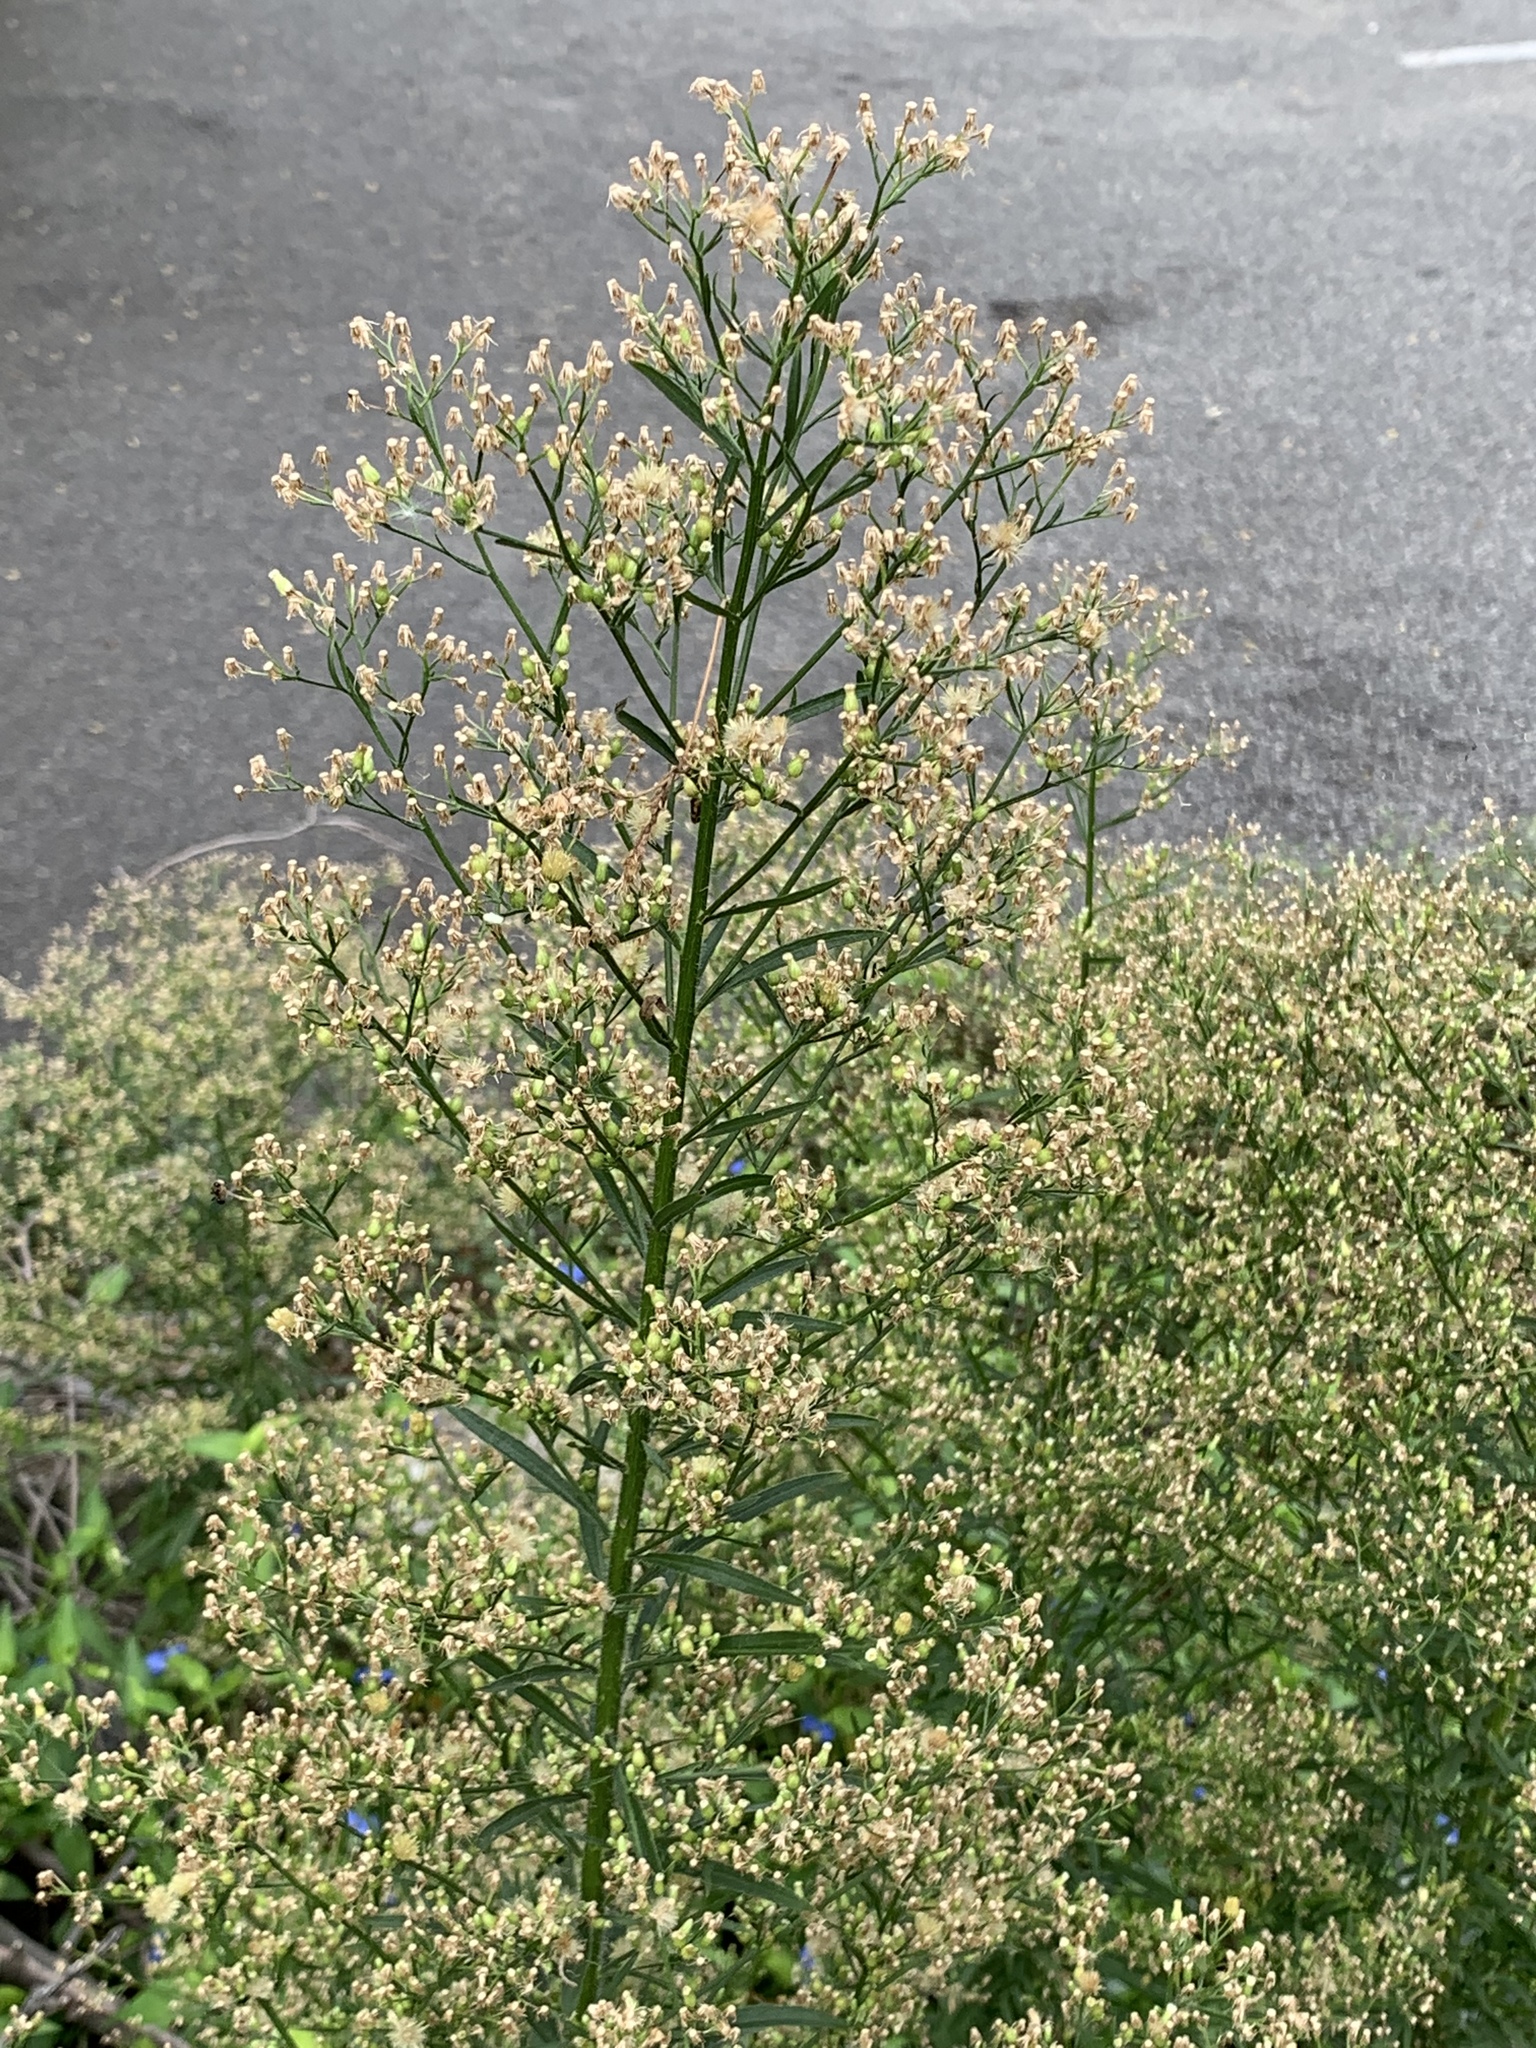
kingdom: Plantae
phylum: Tracheophyta
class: Magnoliopsida
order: Asterales
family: Asteraceae
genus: Erigeron
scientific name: Erigeron canadensis
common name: Canadian fleabane
